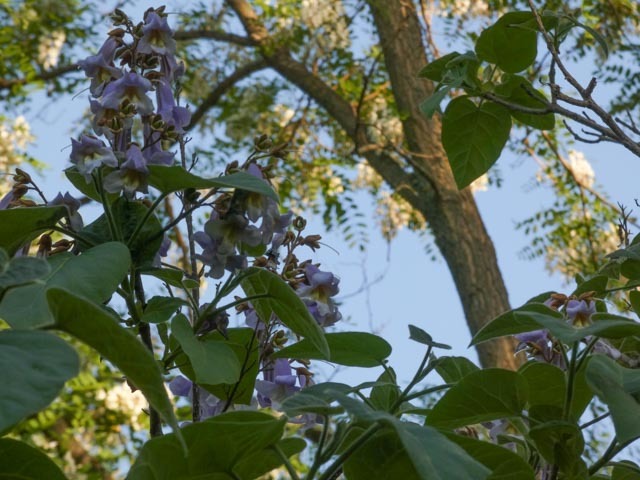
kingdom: Plantae
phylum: Tracheophyta
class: Magnoliopsida
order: Lamiales
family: Paulowniaceae
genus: Paulownia
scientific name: Paulownia tomentosa
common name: Foxglove-tree
